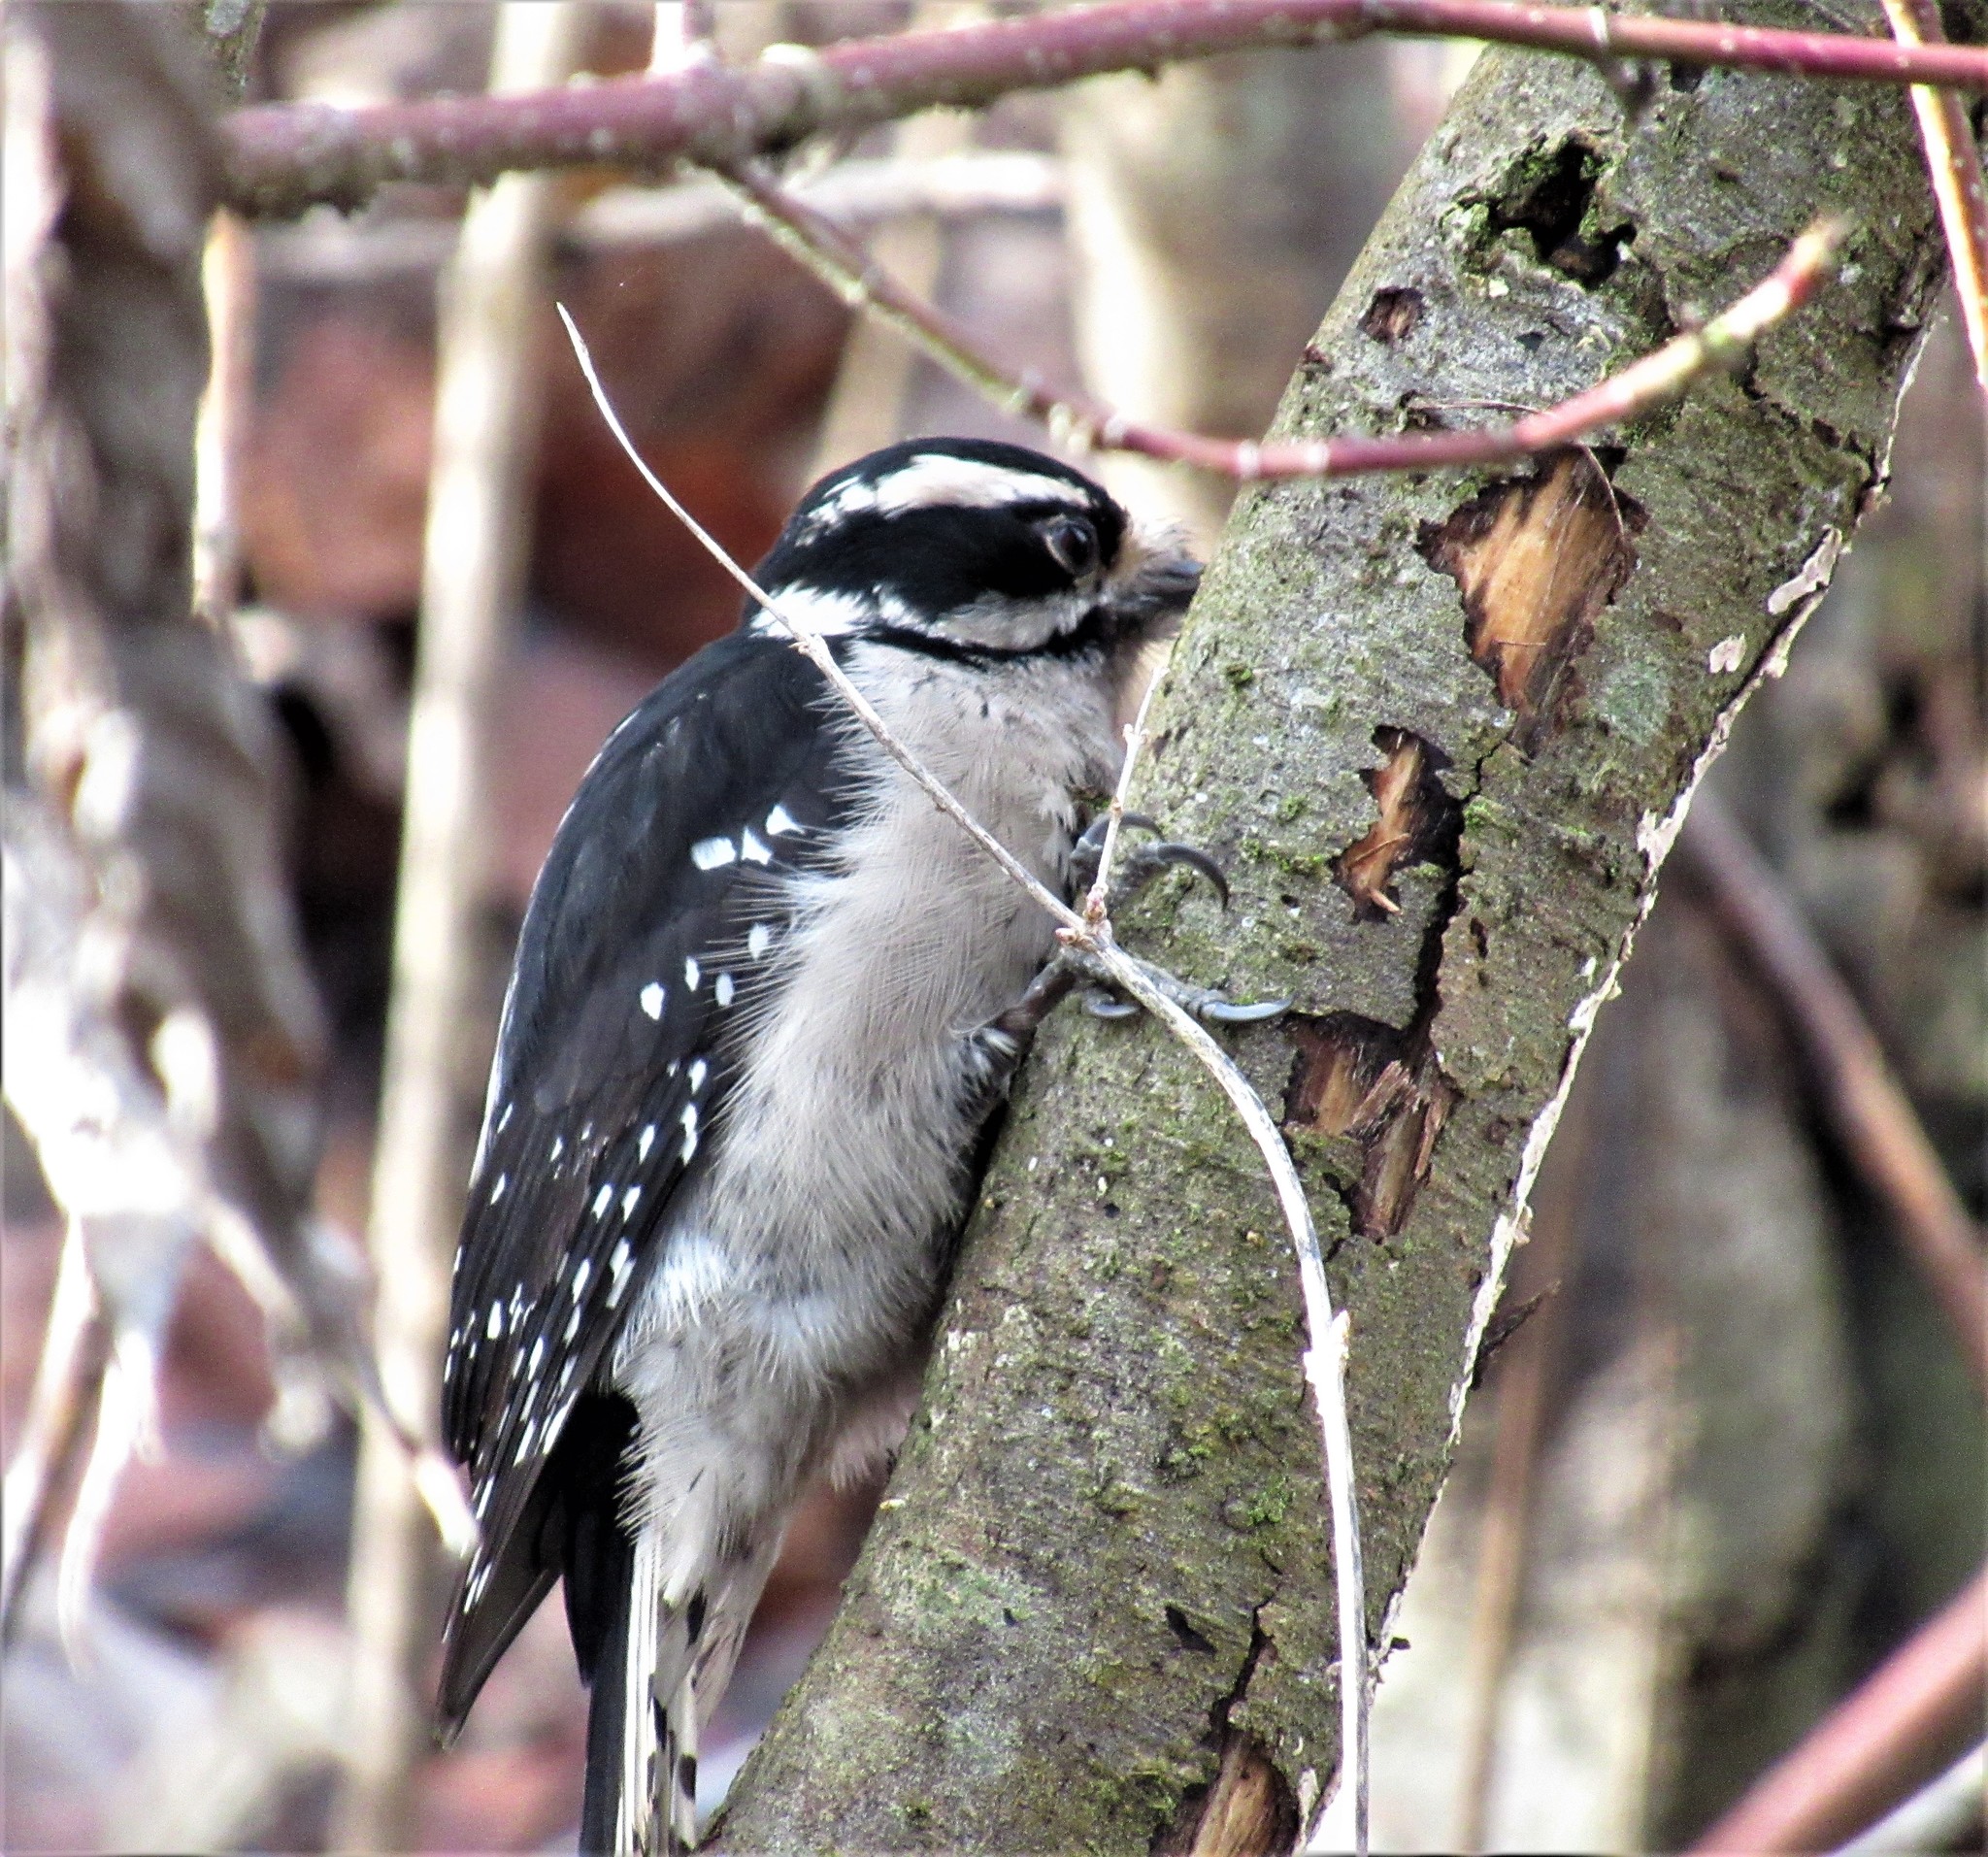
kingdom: Animalia
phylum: Chordata
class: Aves
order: Piciformes
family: Picidae
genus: Dryobates
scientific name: Dryobates pubescens
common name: Downy woodpecker
